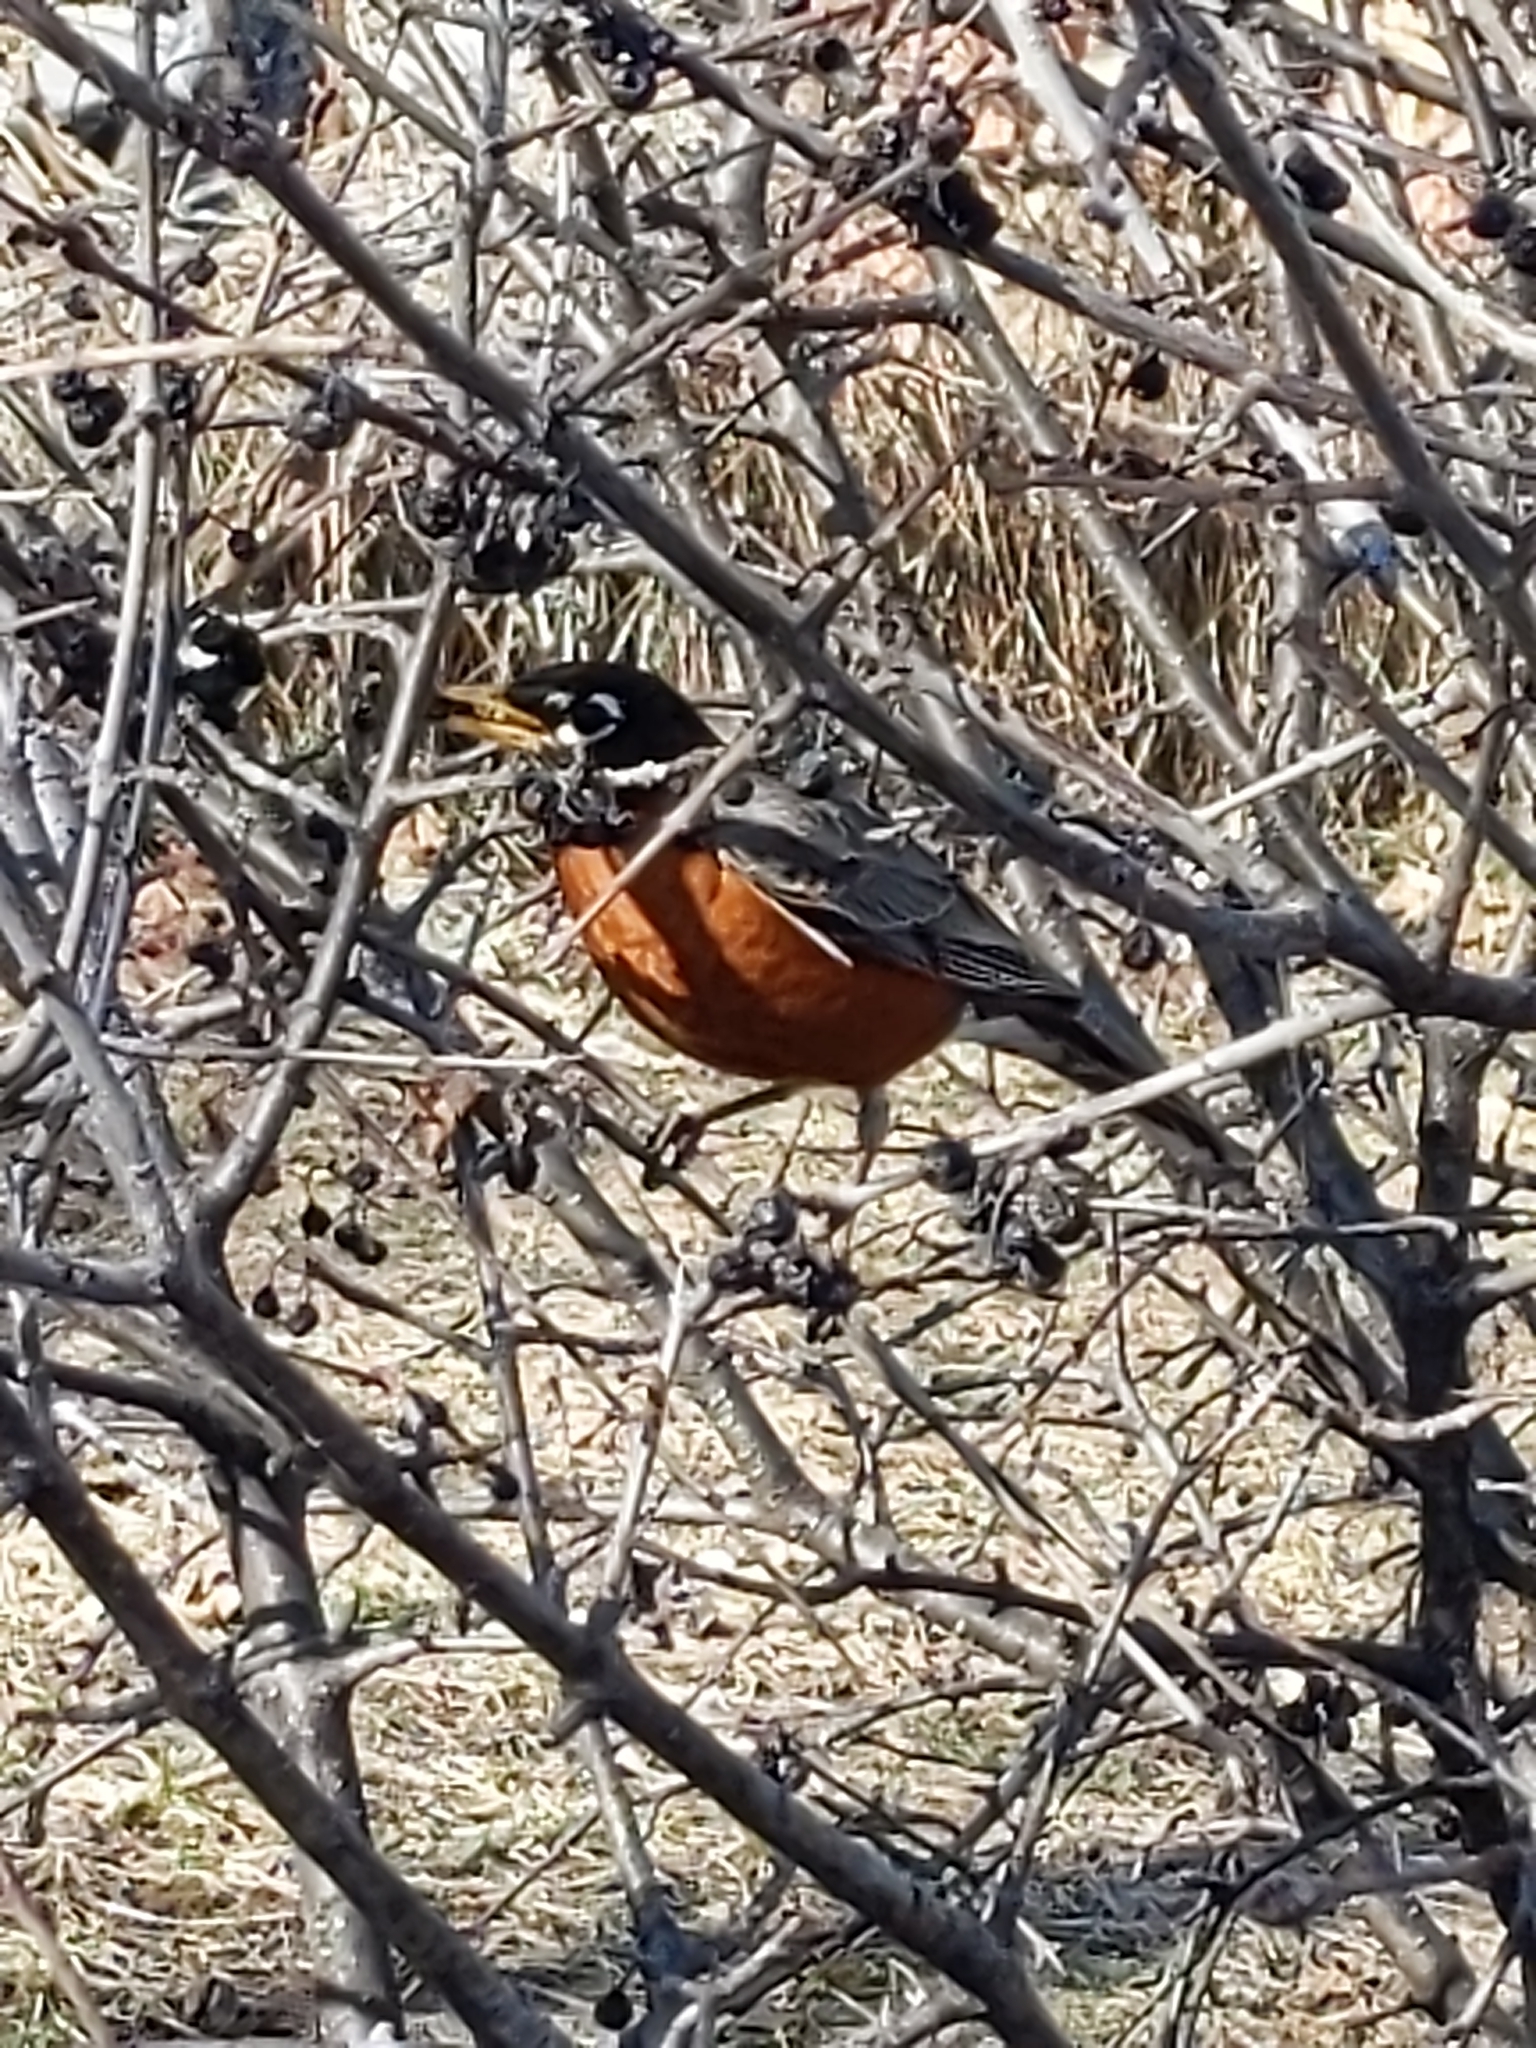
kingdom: Animalia
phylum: Chordata
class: Aves
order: Passeriformes
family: Turdidae
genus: Turdus
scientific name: Turdus migratorius
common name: American robin
